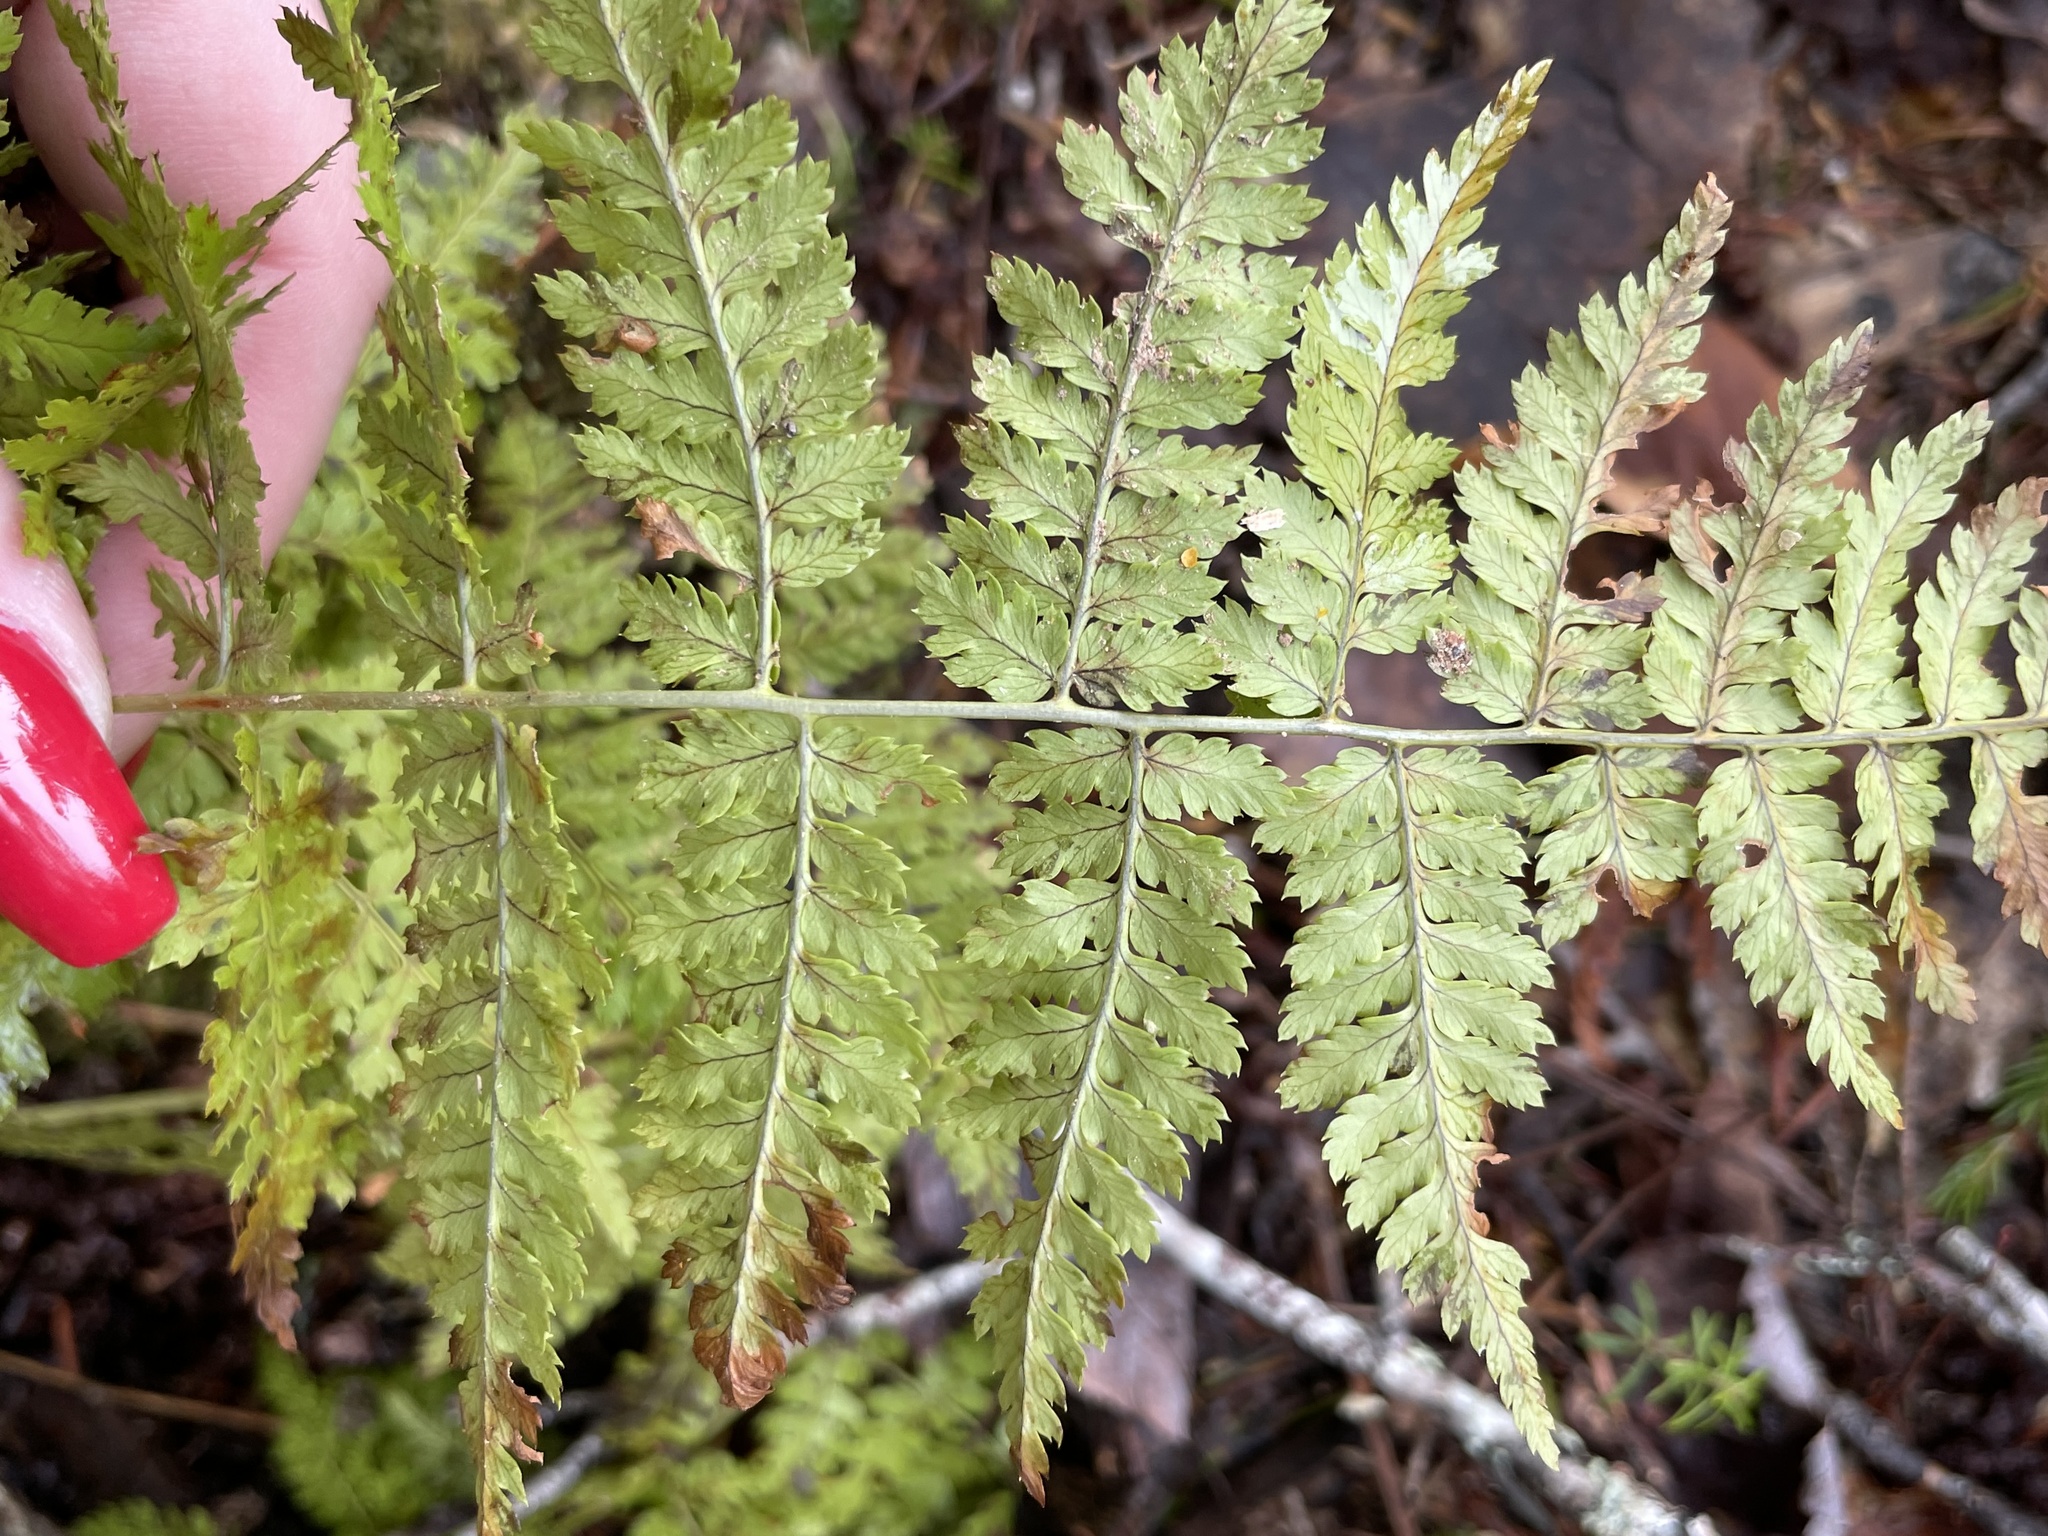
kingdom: Plantae
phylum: Tracheophyta
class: Polypodiopsida
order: Polypodiales
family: Dryopteridaceae
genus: Dryopteris
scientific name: Dryopteris intermedia
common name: Evergreen wood fern
